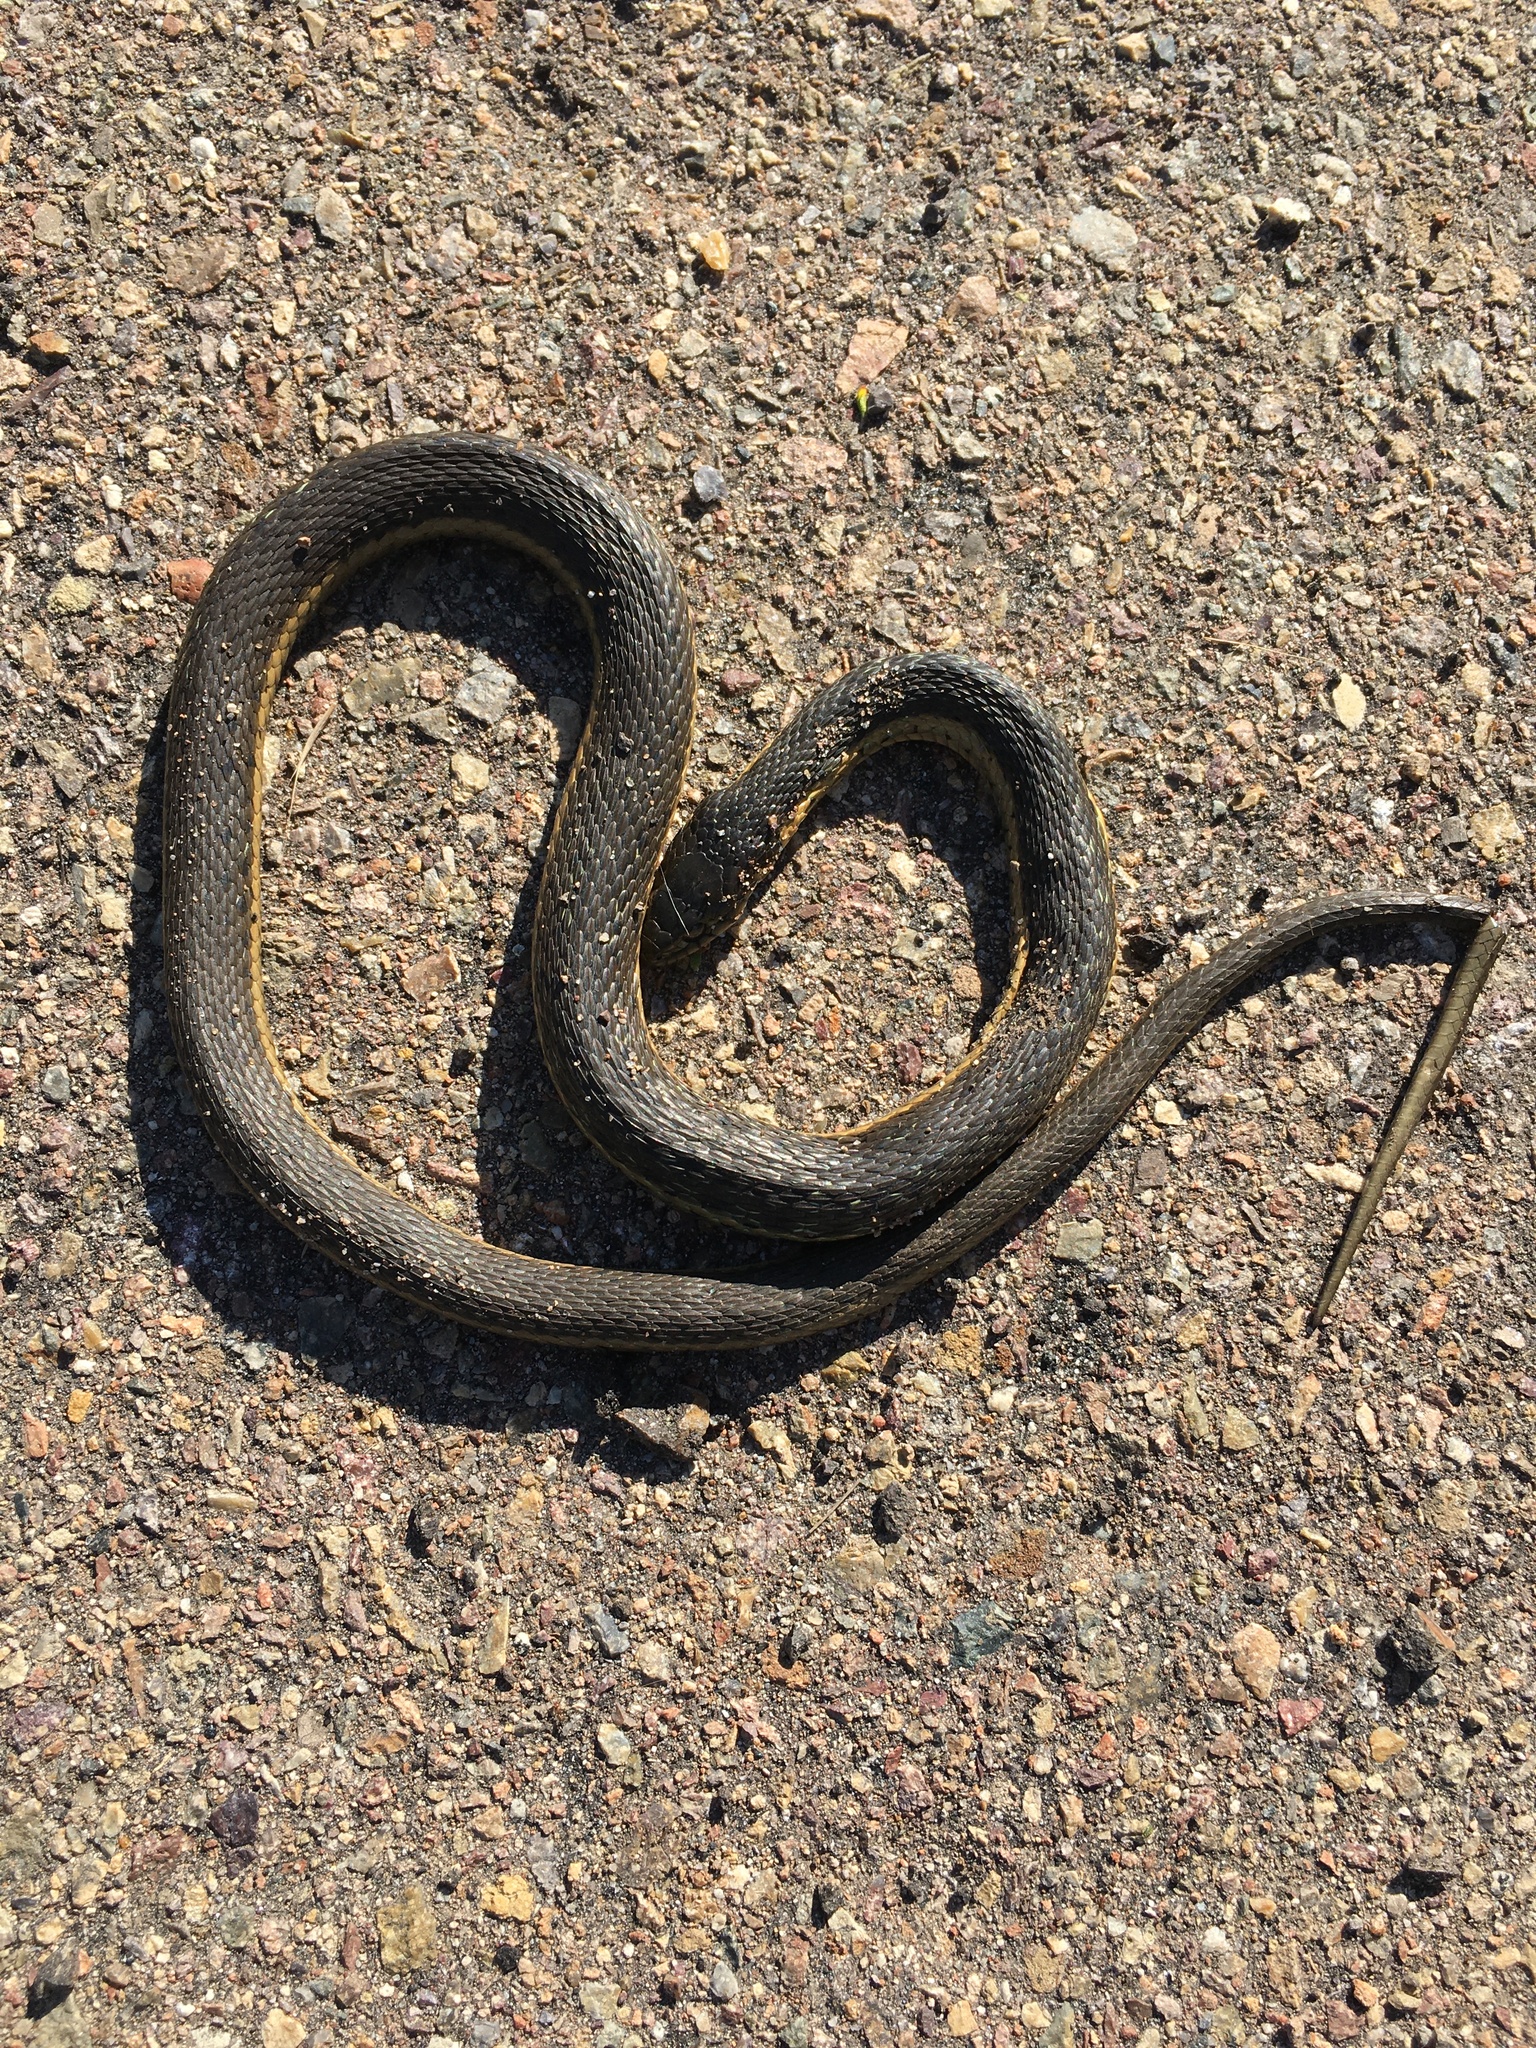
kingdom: Animalia
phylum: Chordata
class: Squamata
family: Colubridae
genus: Thamnophis
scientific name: Thamnophis hammondii
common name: Two-striped garter snake
